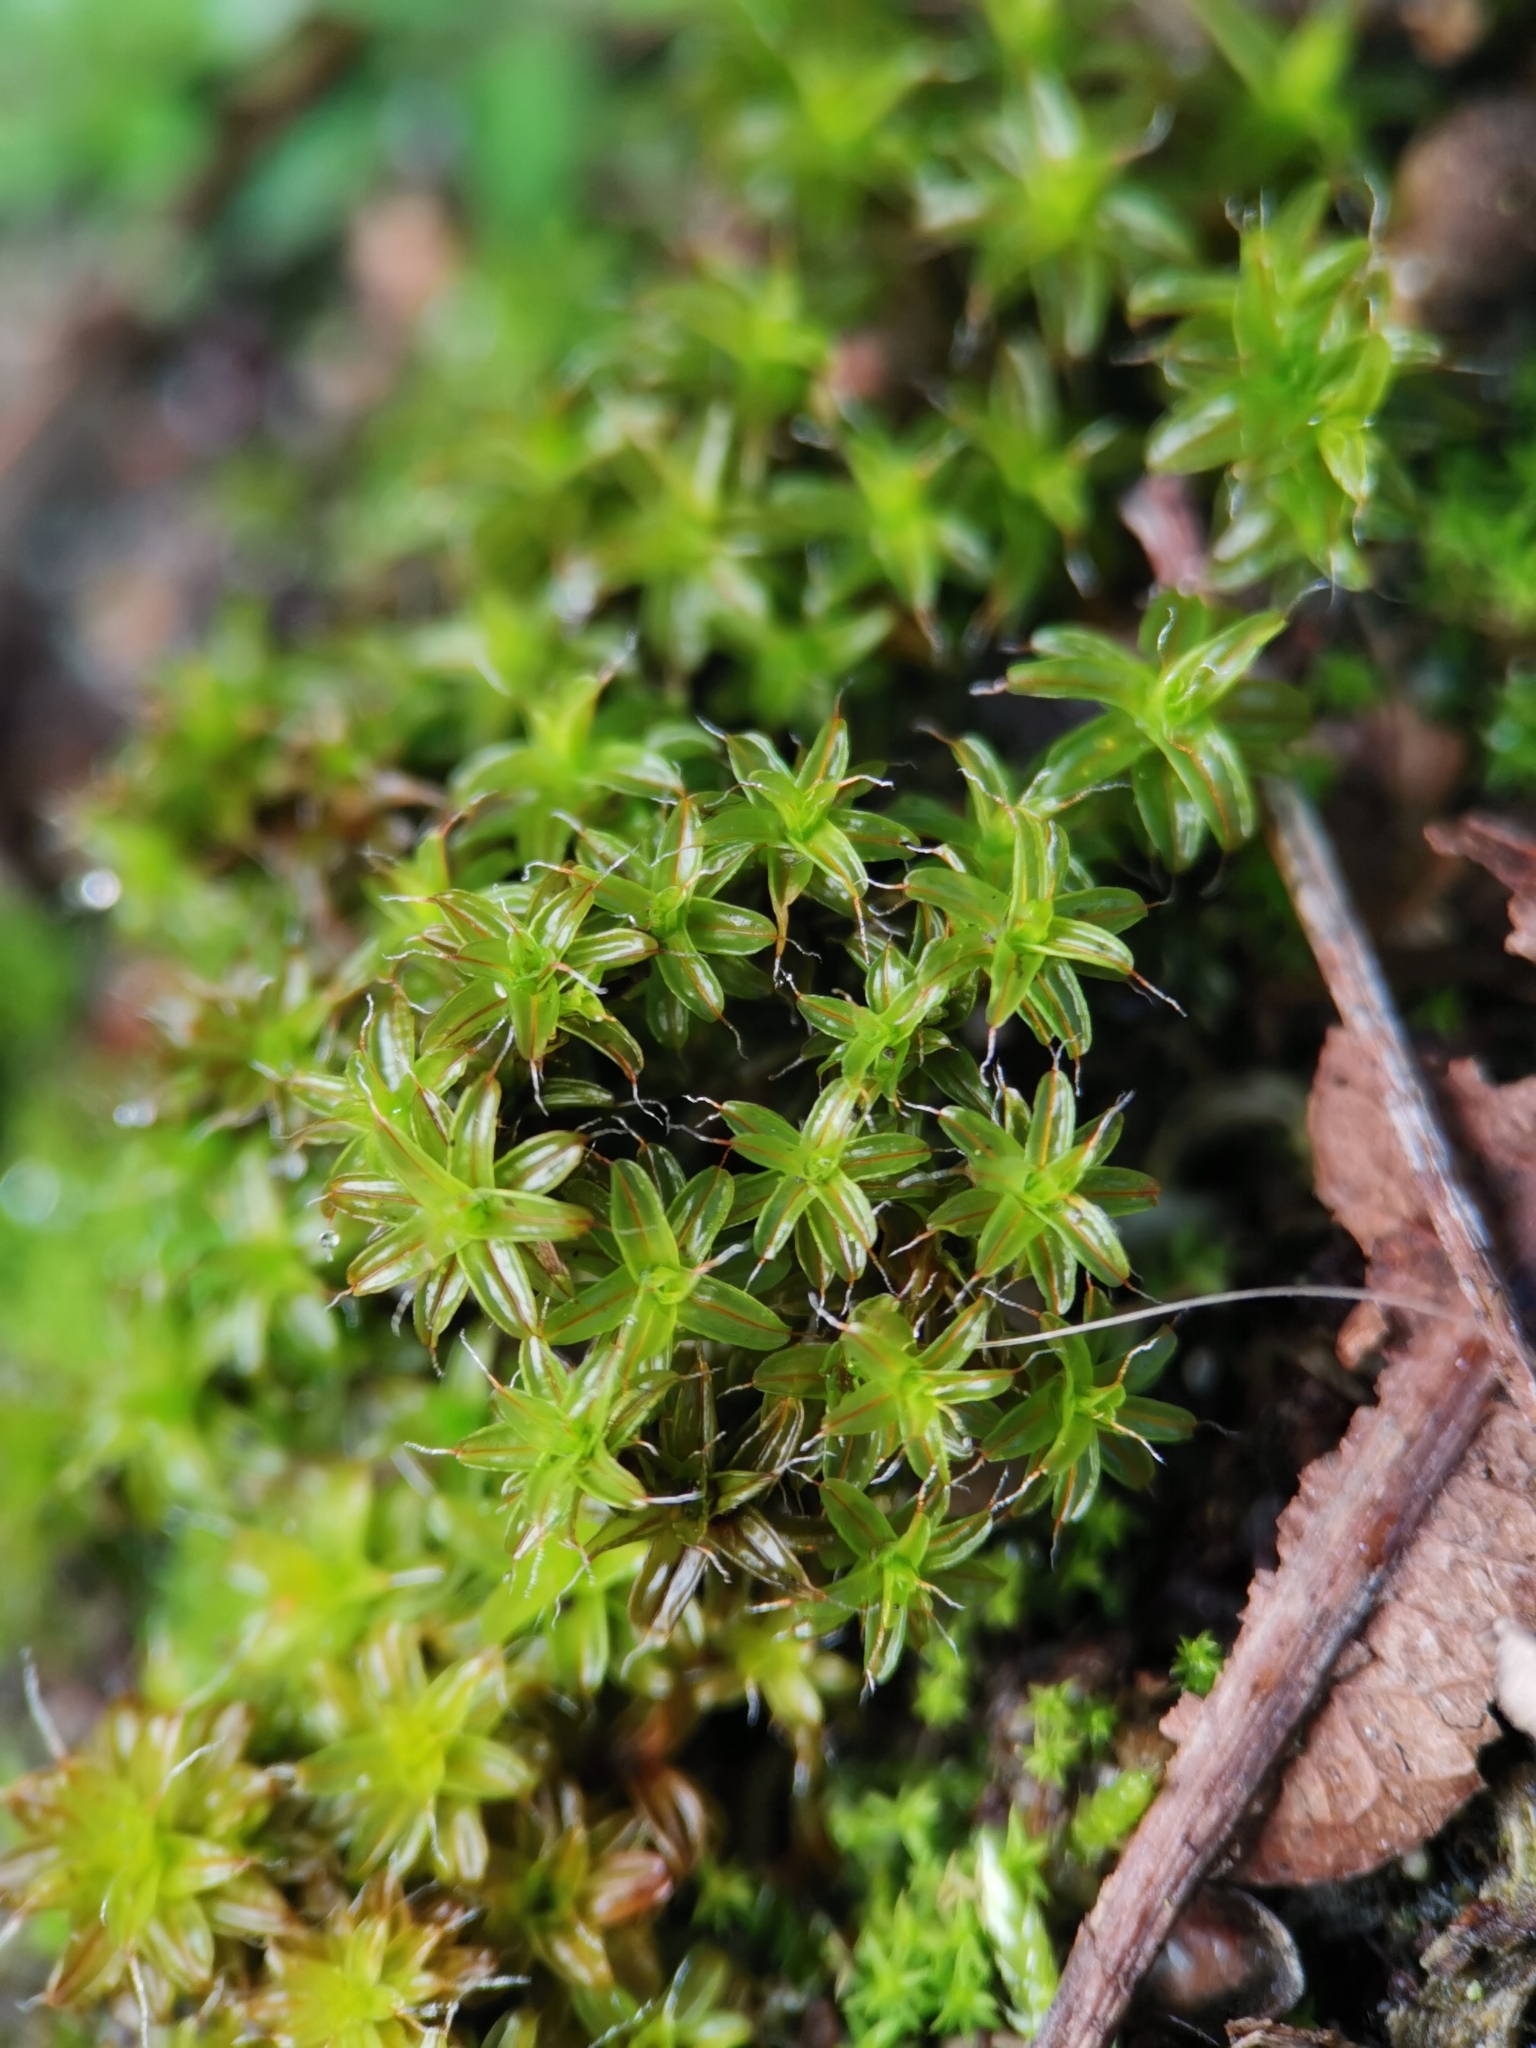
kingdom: Plantae
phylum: Bryophyta
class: Bryopsida
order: Pottiales
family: Pottiaceae
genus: Syntrichia
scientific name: Syntrichia ruralis
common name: Sidewalk screw moss
